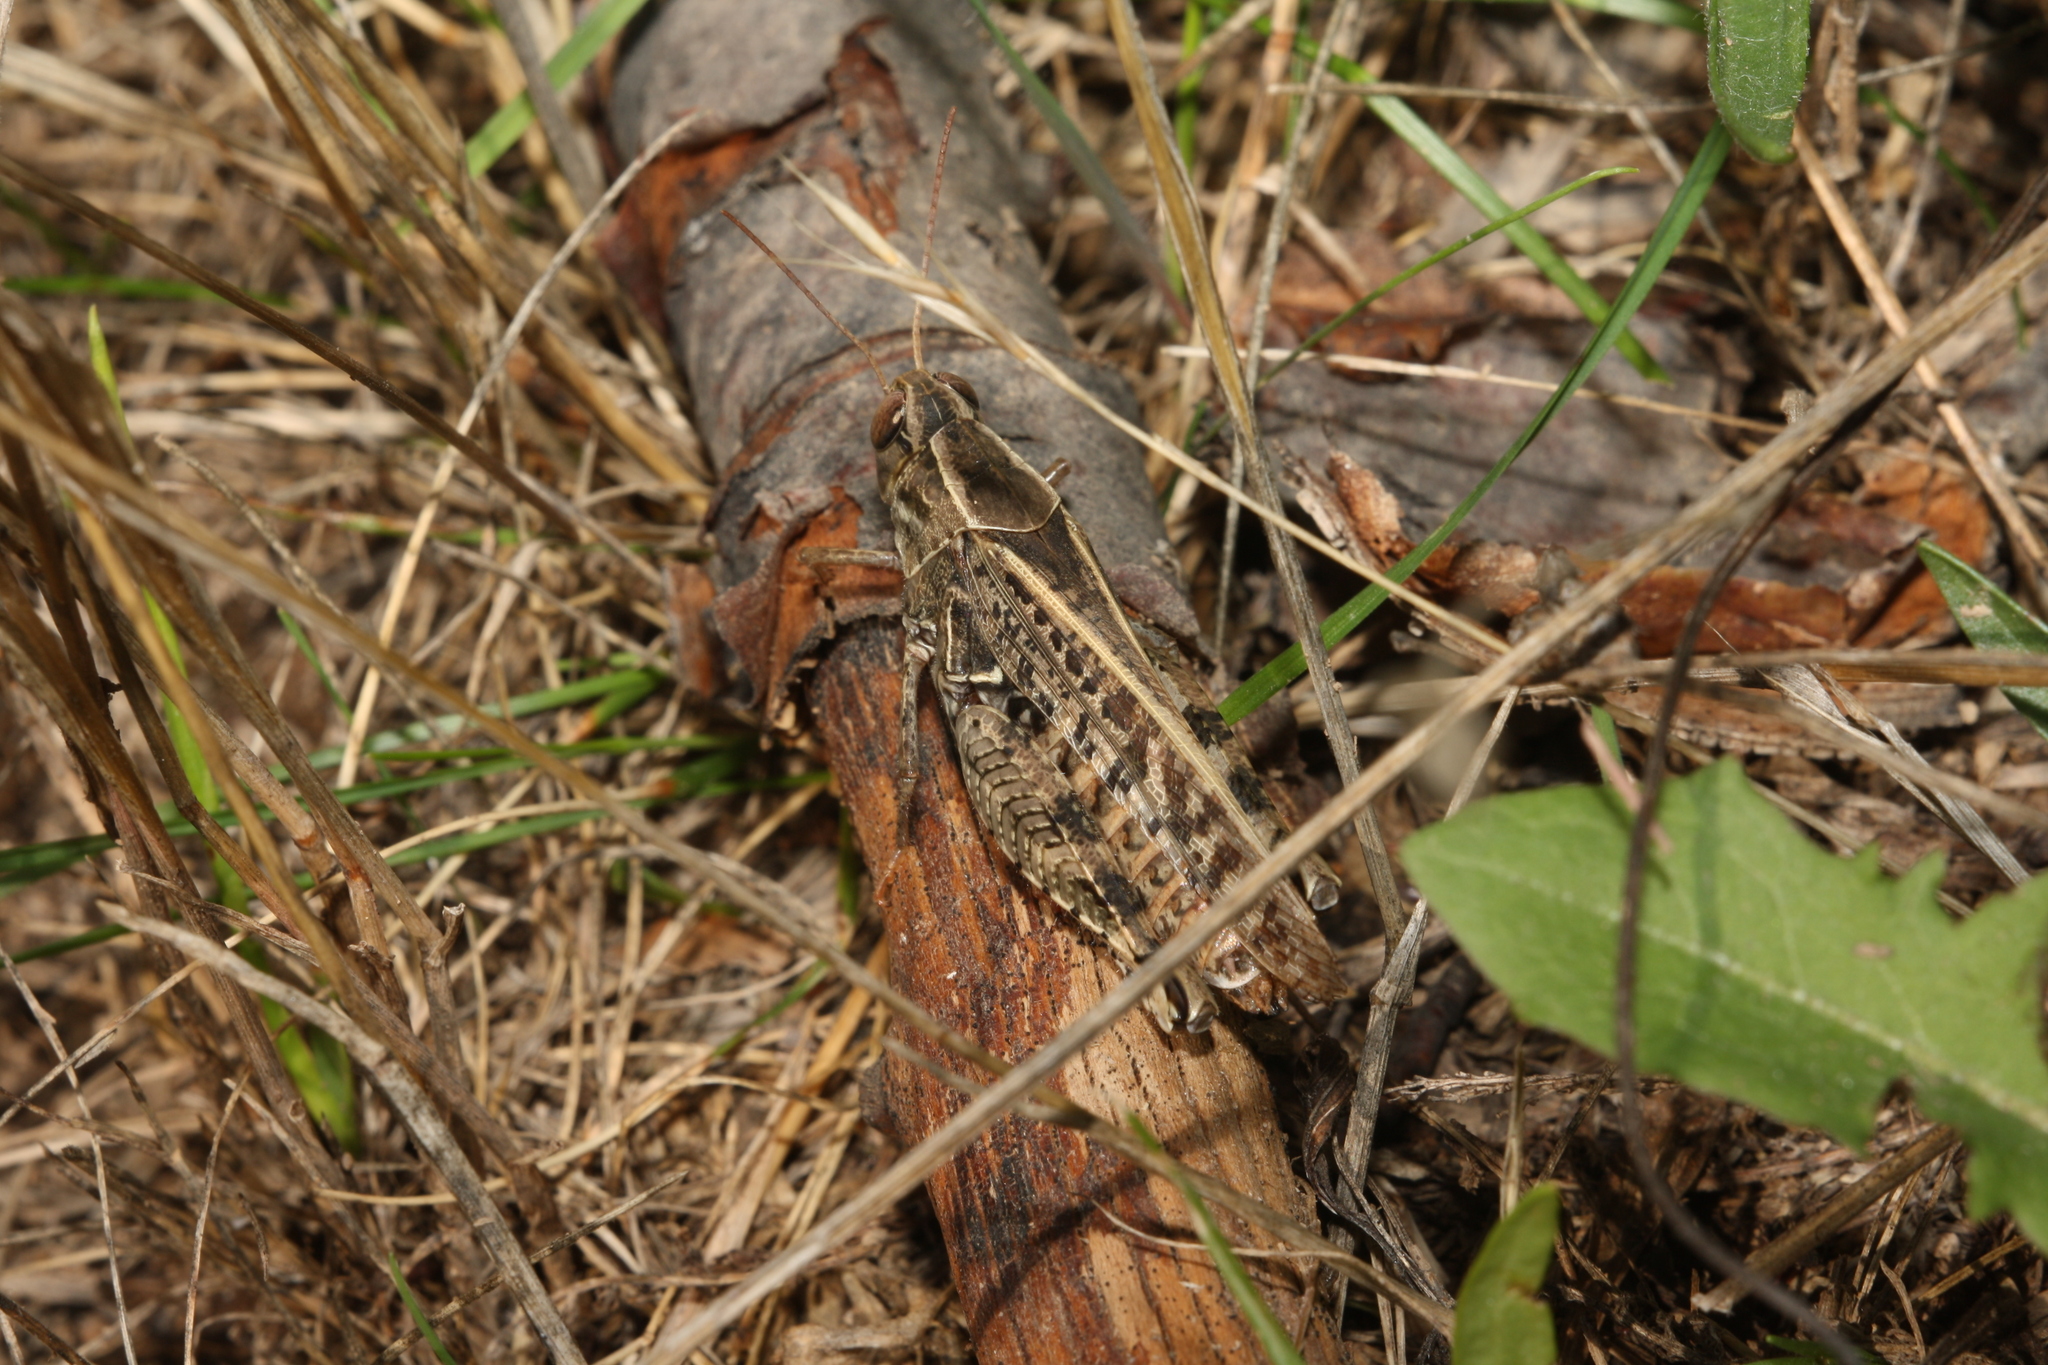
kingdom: Animalia
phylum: Arthropoda
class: Insecta
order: Orthoptera
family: Acrididae
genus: Calliptamus
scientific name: Calliptamus italicus
